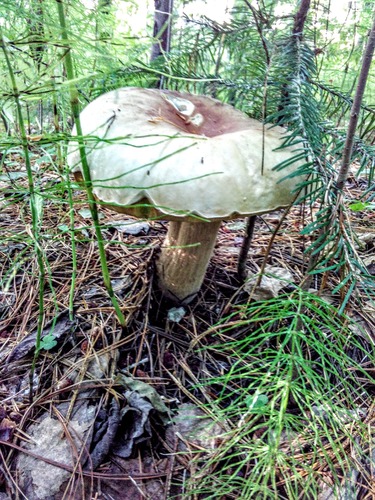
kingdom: Fungi
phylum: Basidiomycota
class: Agaricomycetes
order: Boletales
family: Boletaceae
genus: Boletus
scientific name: Boletus edulis
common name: Cep
